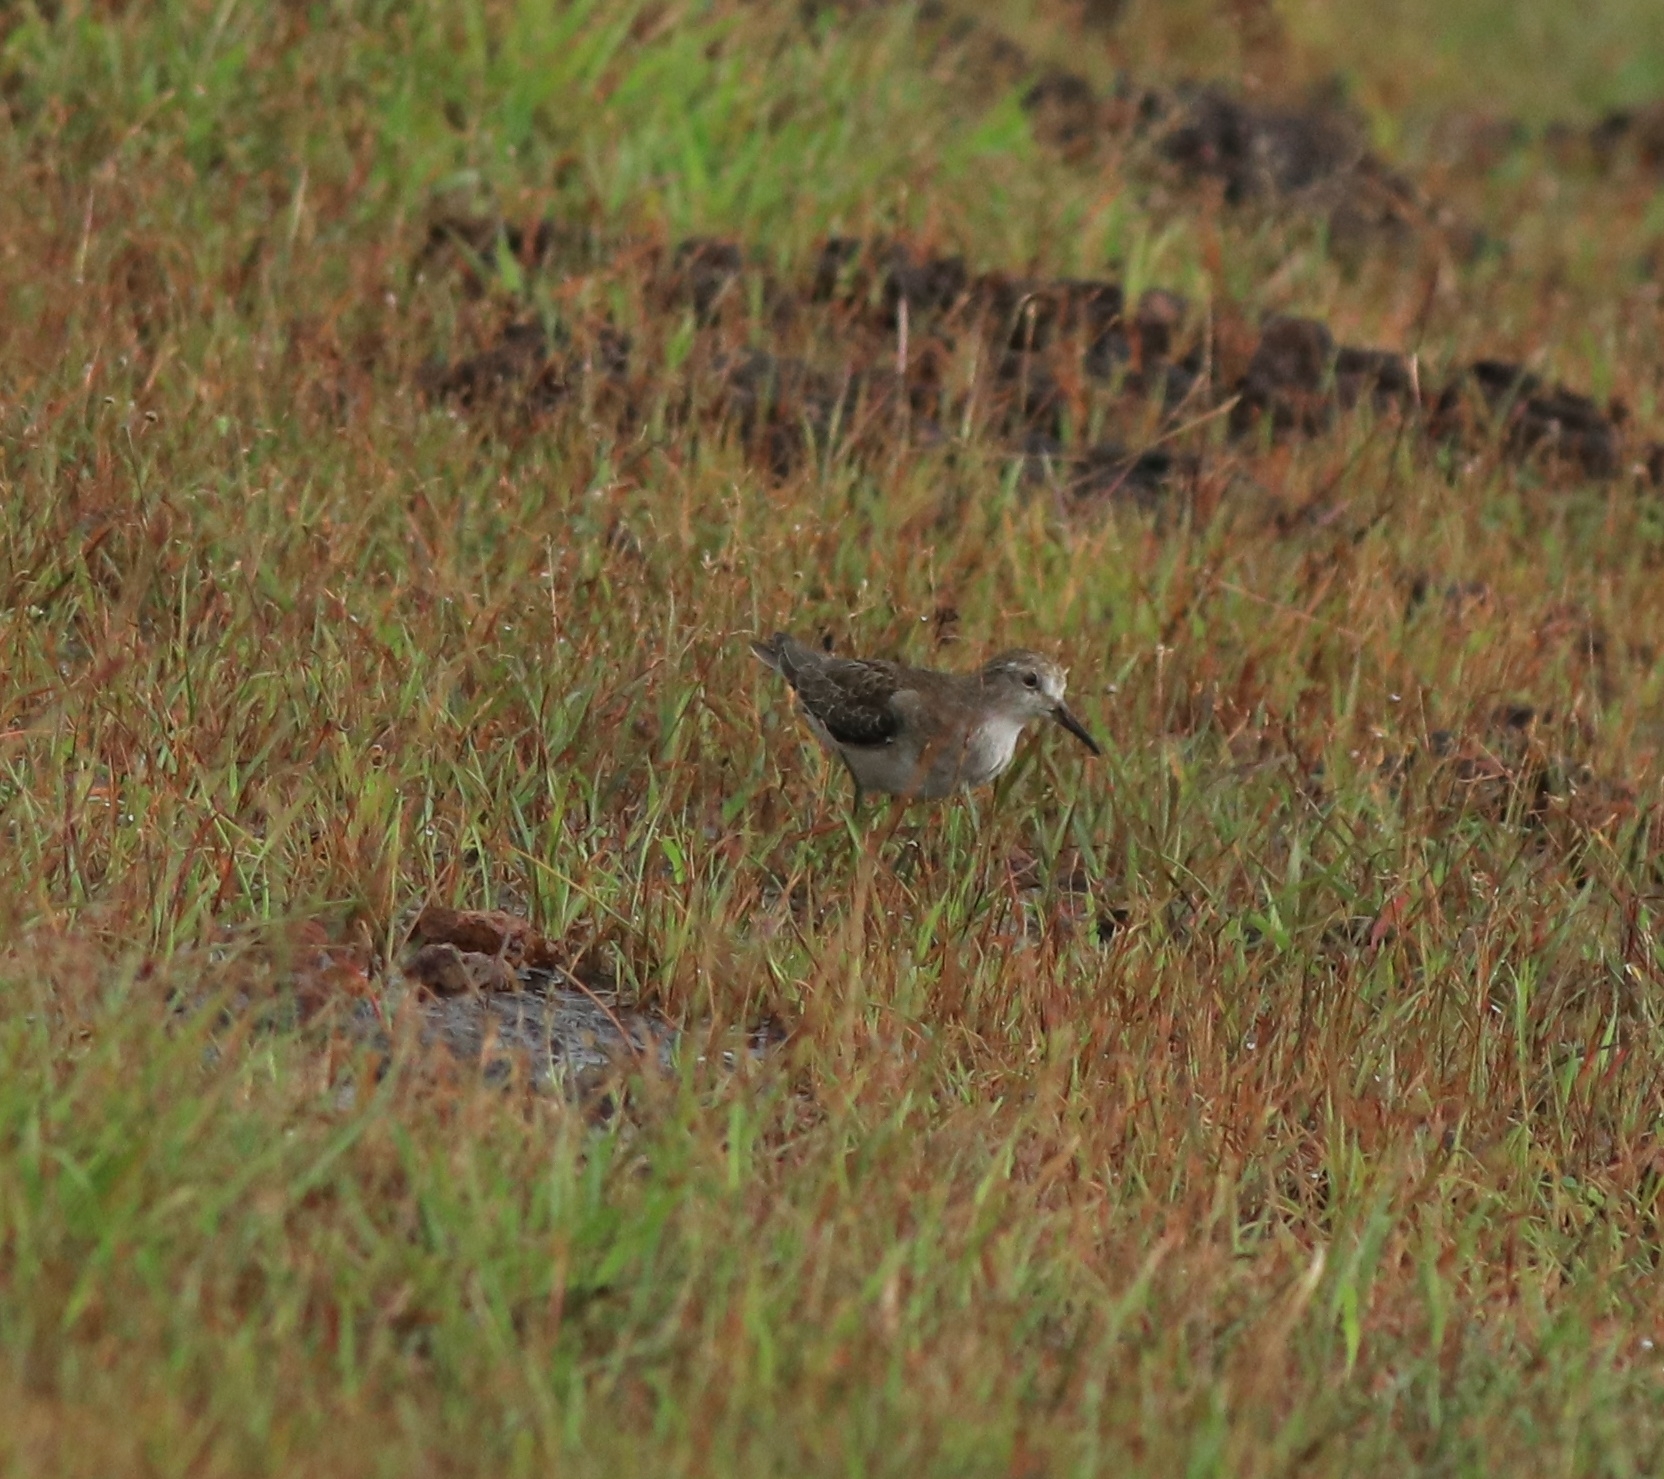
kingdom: Animalia
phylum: Chordata
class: Aves
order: Charadriiformes
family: Scolopacidae
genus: Calidris
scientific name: Calidris temminckii
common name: Temminck's stint
